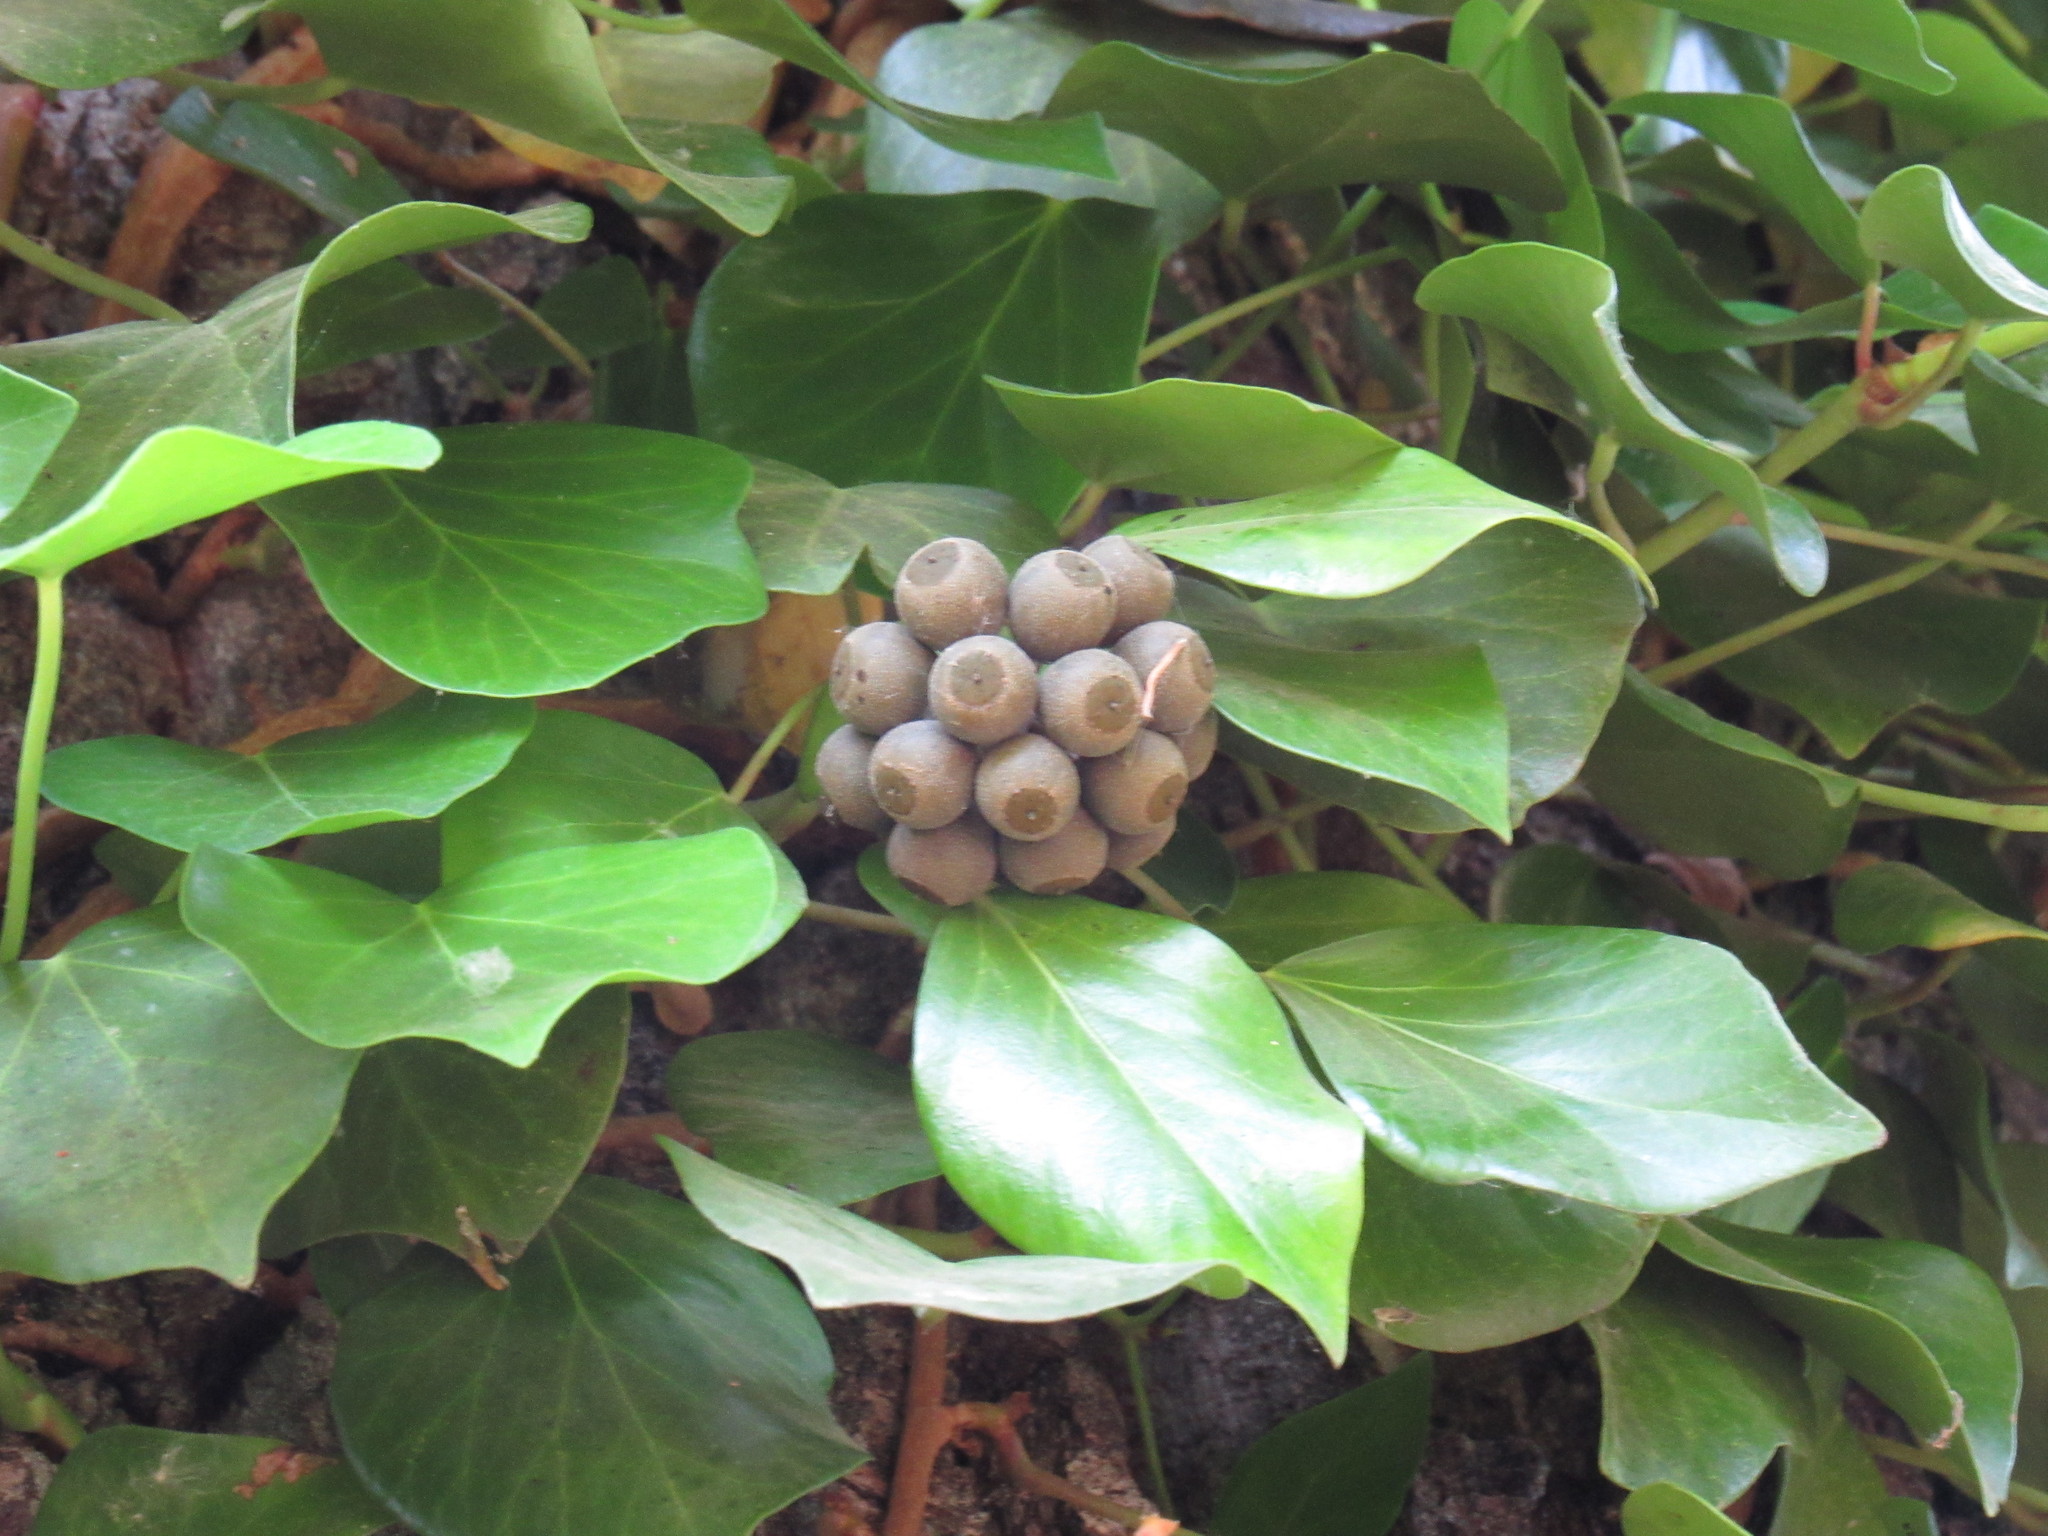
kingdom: Plantae
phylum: Tracheophyta
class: Magnoliopsida
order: Apiales
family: Araliaceae
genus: Hedera
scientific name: Hedera pastuchovii
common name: Persian ivy
